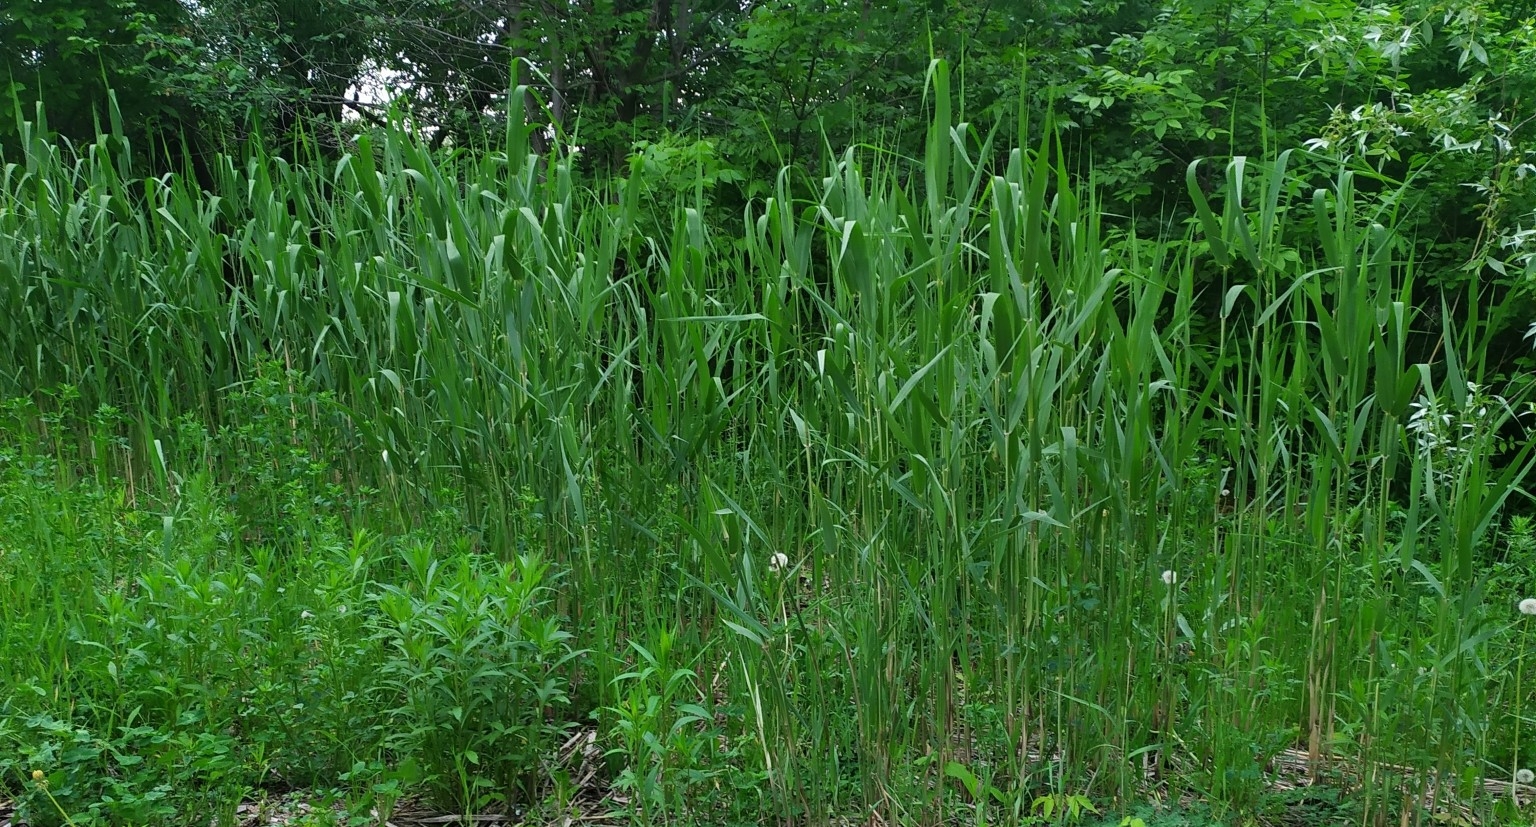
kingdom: Plantae
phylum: Tracheophyta
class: Liliopsida
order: Poales
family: Poaceae
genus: Phragmites
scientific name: Phragmites australis
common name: Common reed
